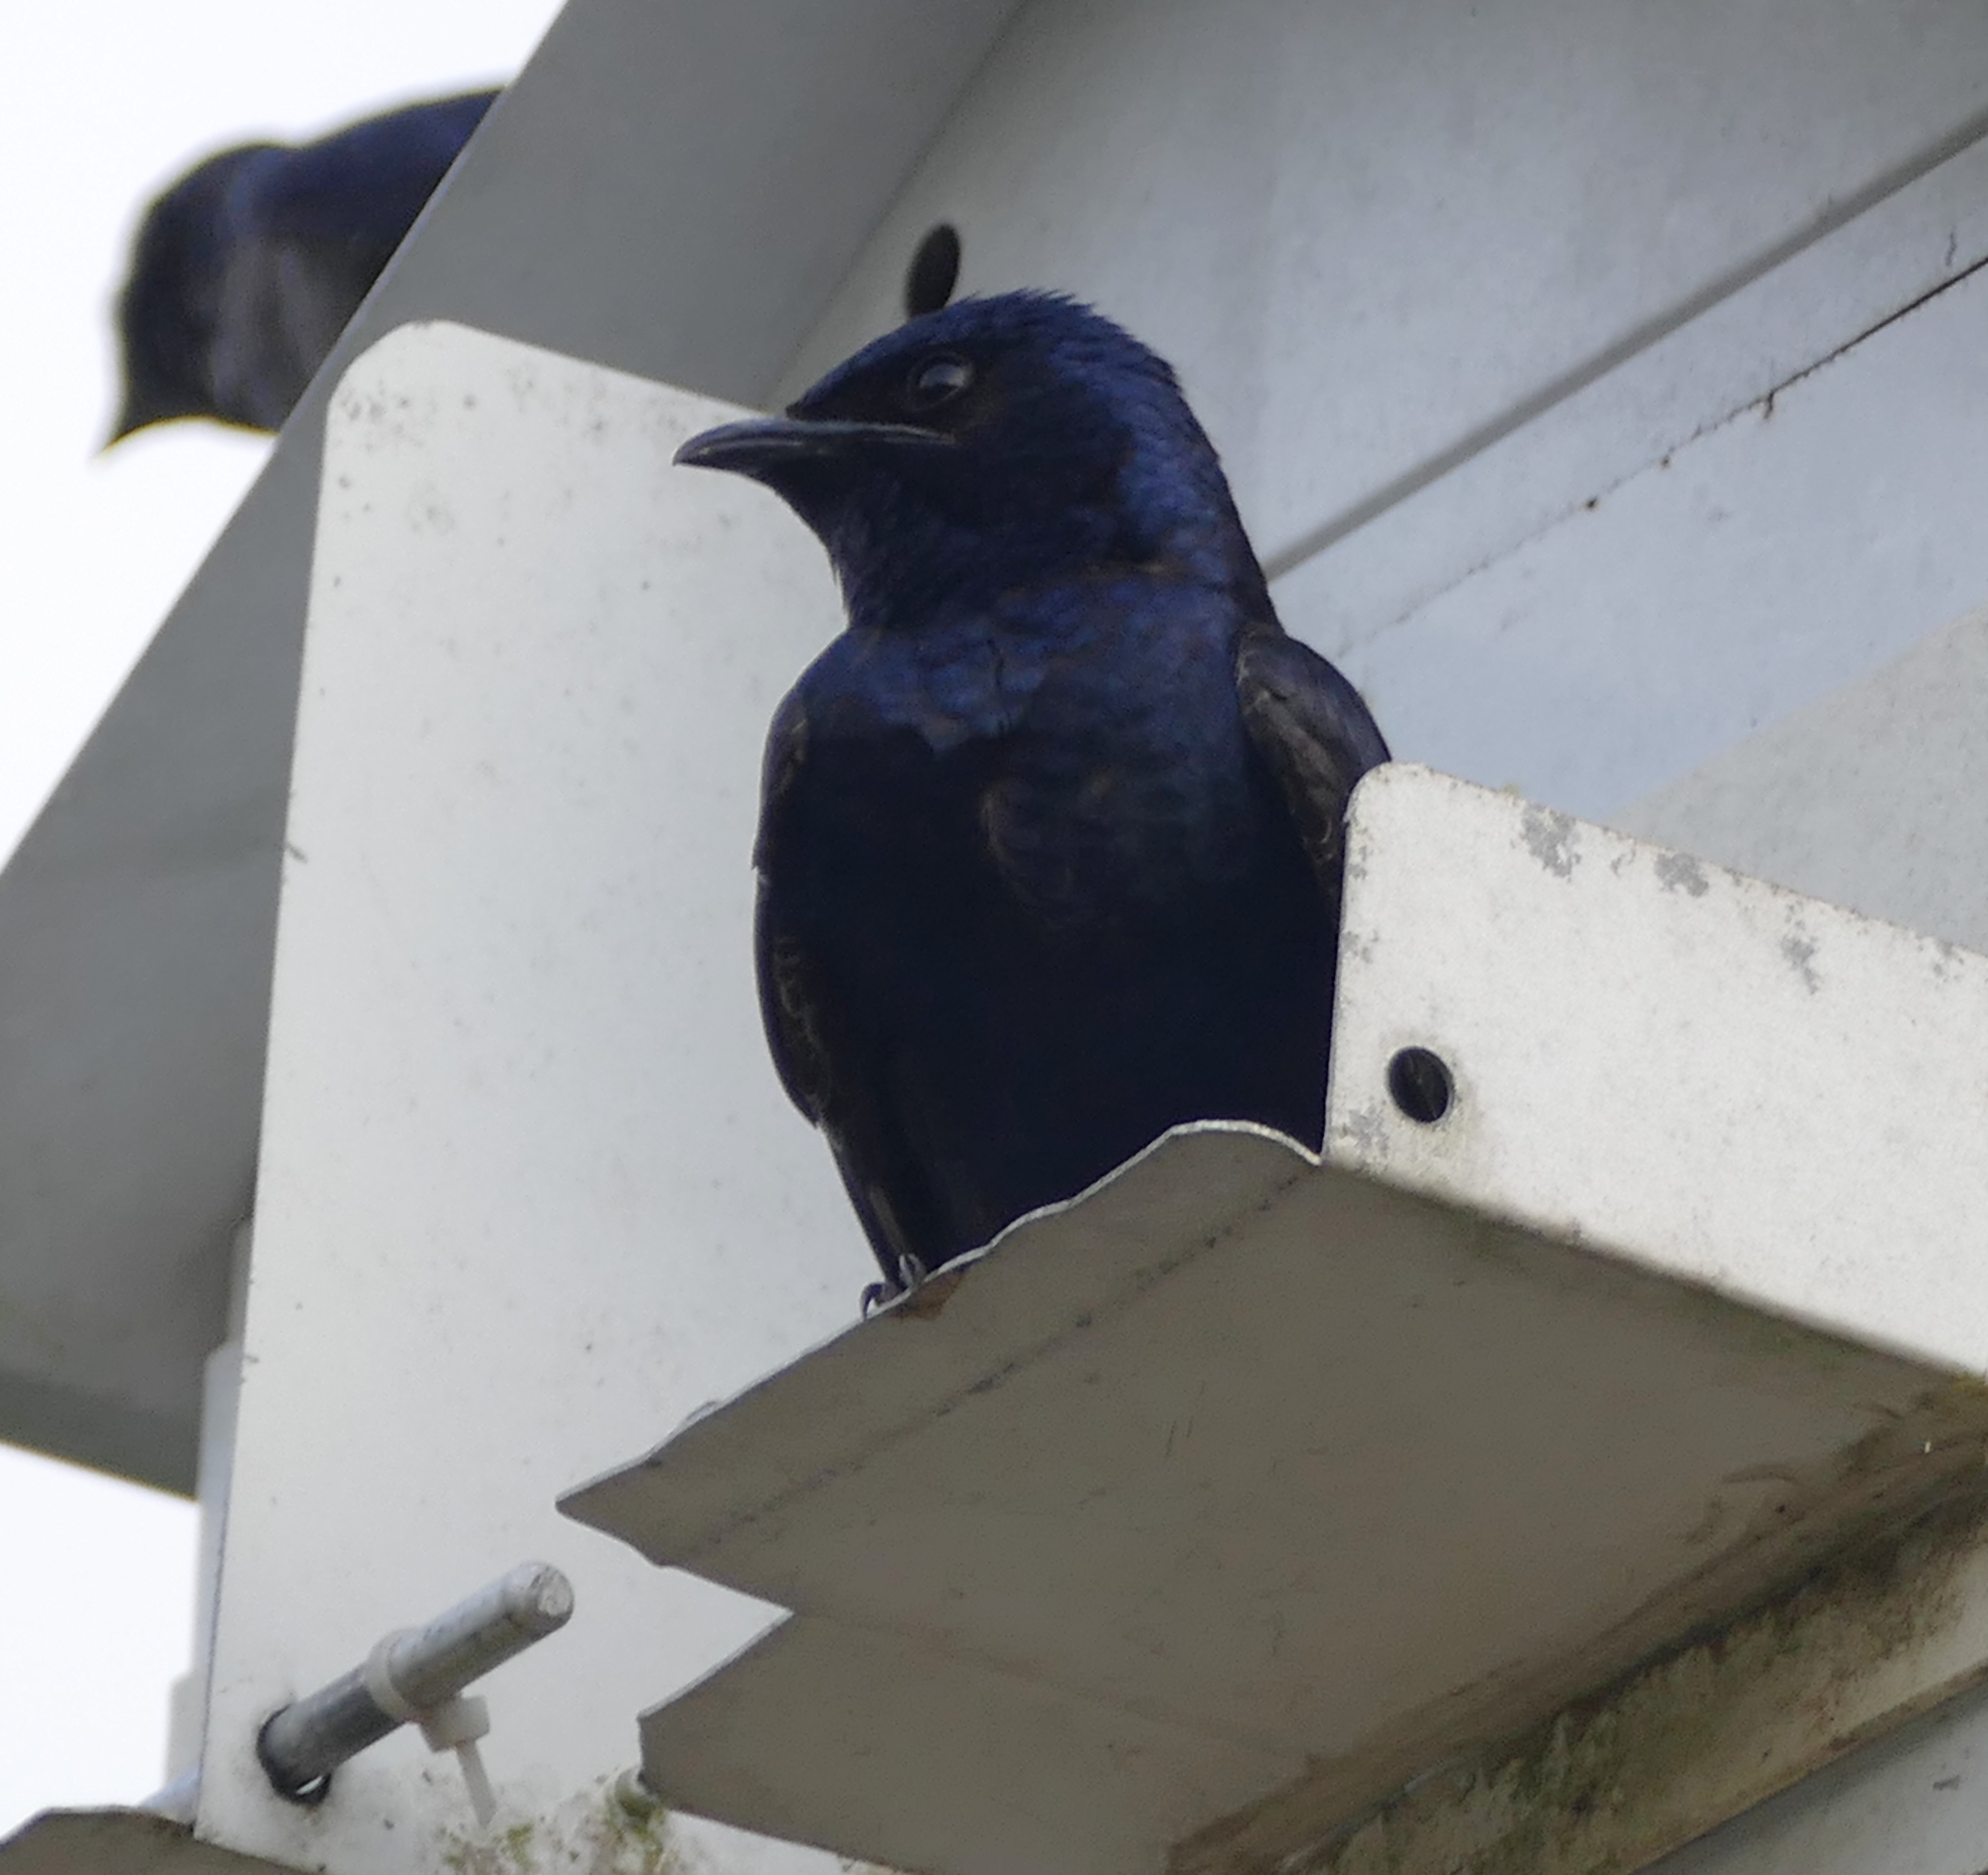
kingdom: Animalia
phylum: Chordata
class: Aves
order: Passeriformes
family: Hirundinidae
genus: Progne
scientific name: Progne subis
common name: Purple martin
